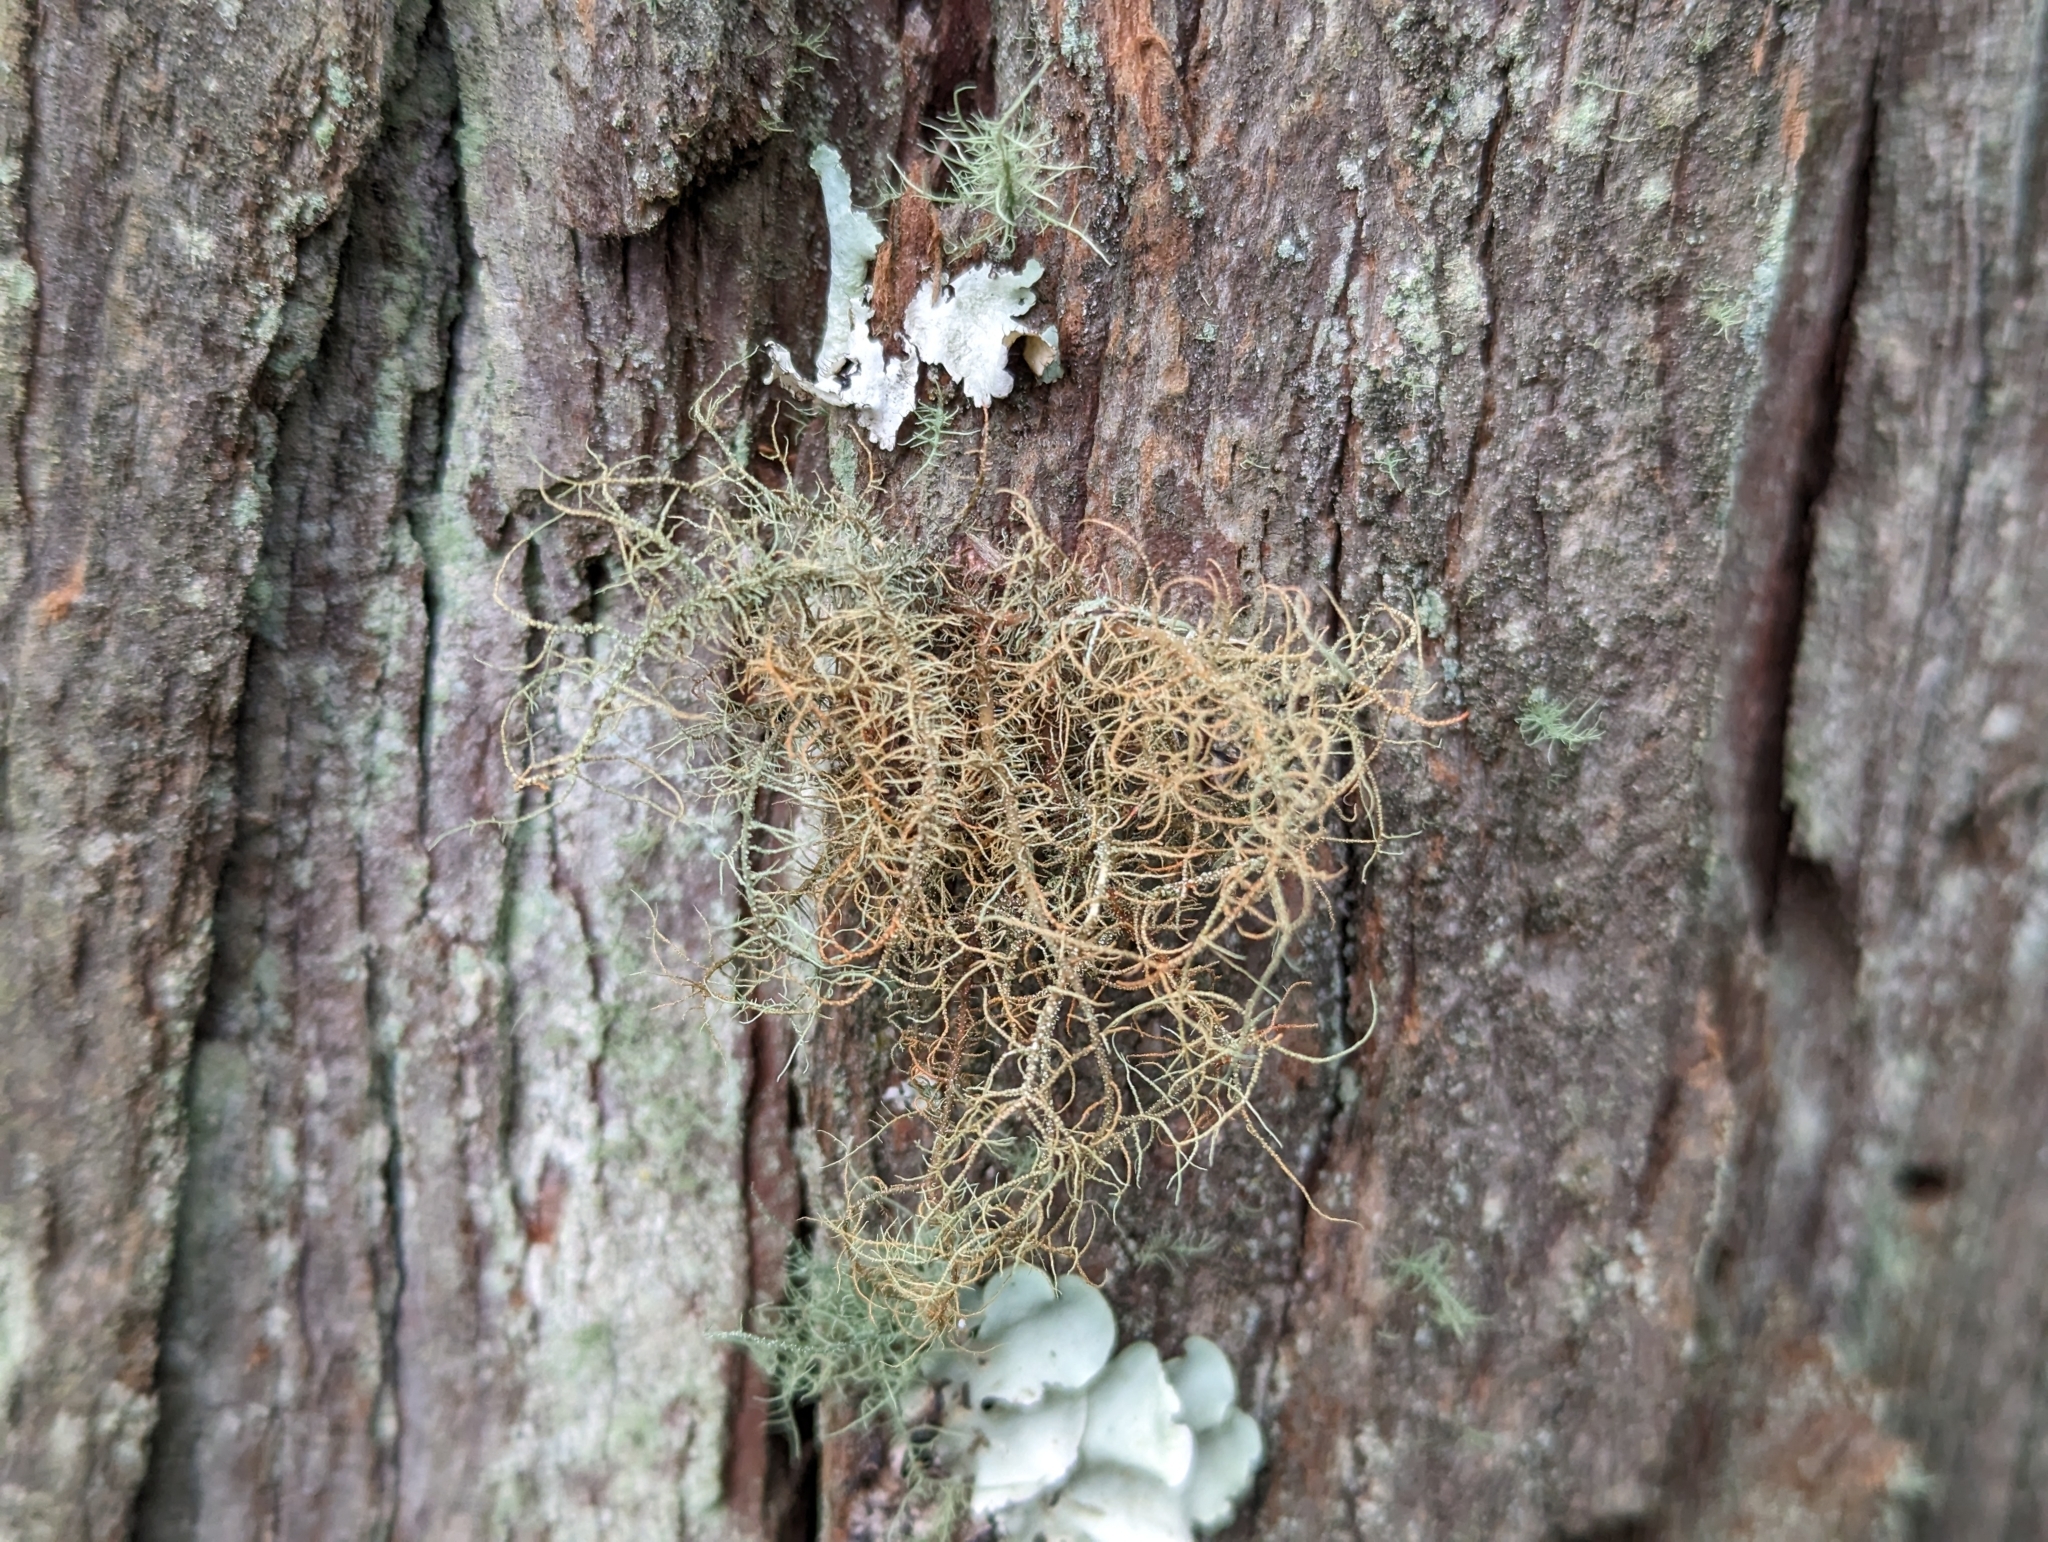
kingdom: Fungi
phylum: Ascomycota
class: Lecanoromycetes
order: Lecanorales
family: Parmeliaceae
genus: Usnea
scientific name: Usnea rubicunda
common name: Red beard lichen
